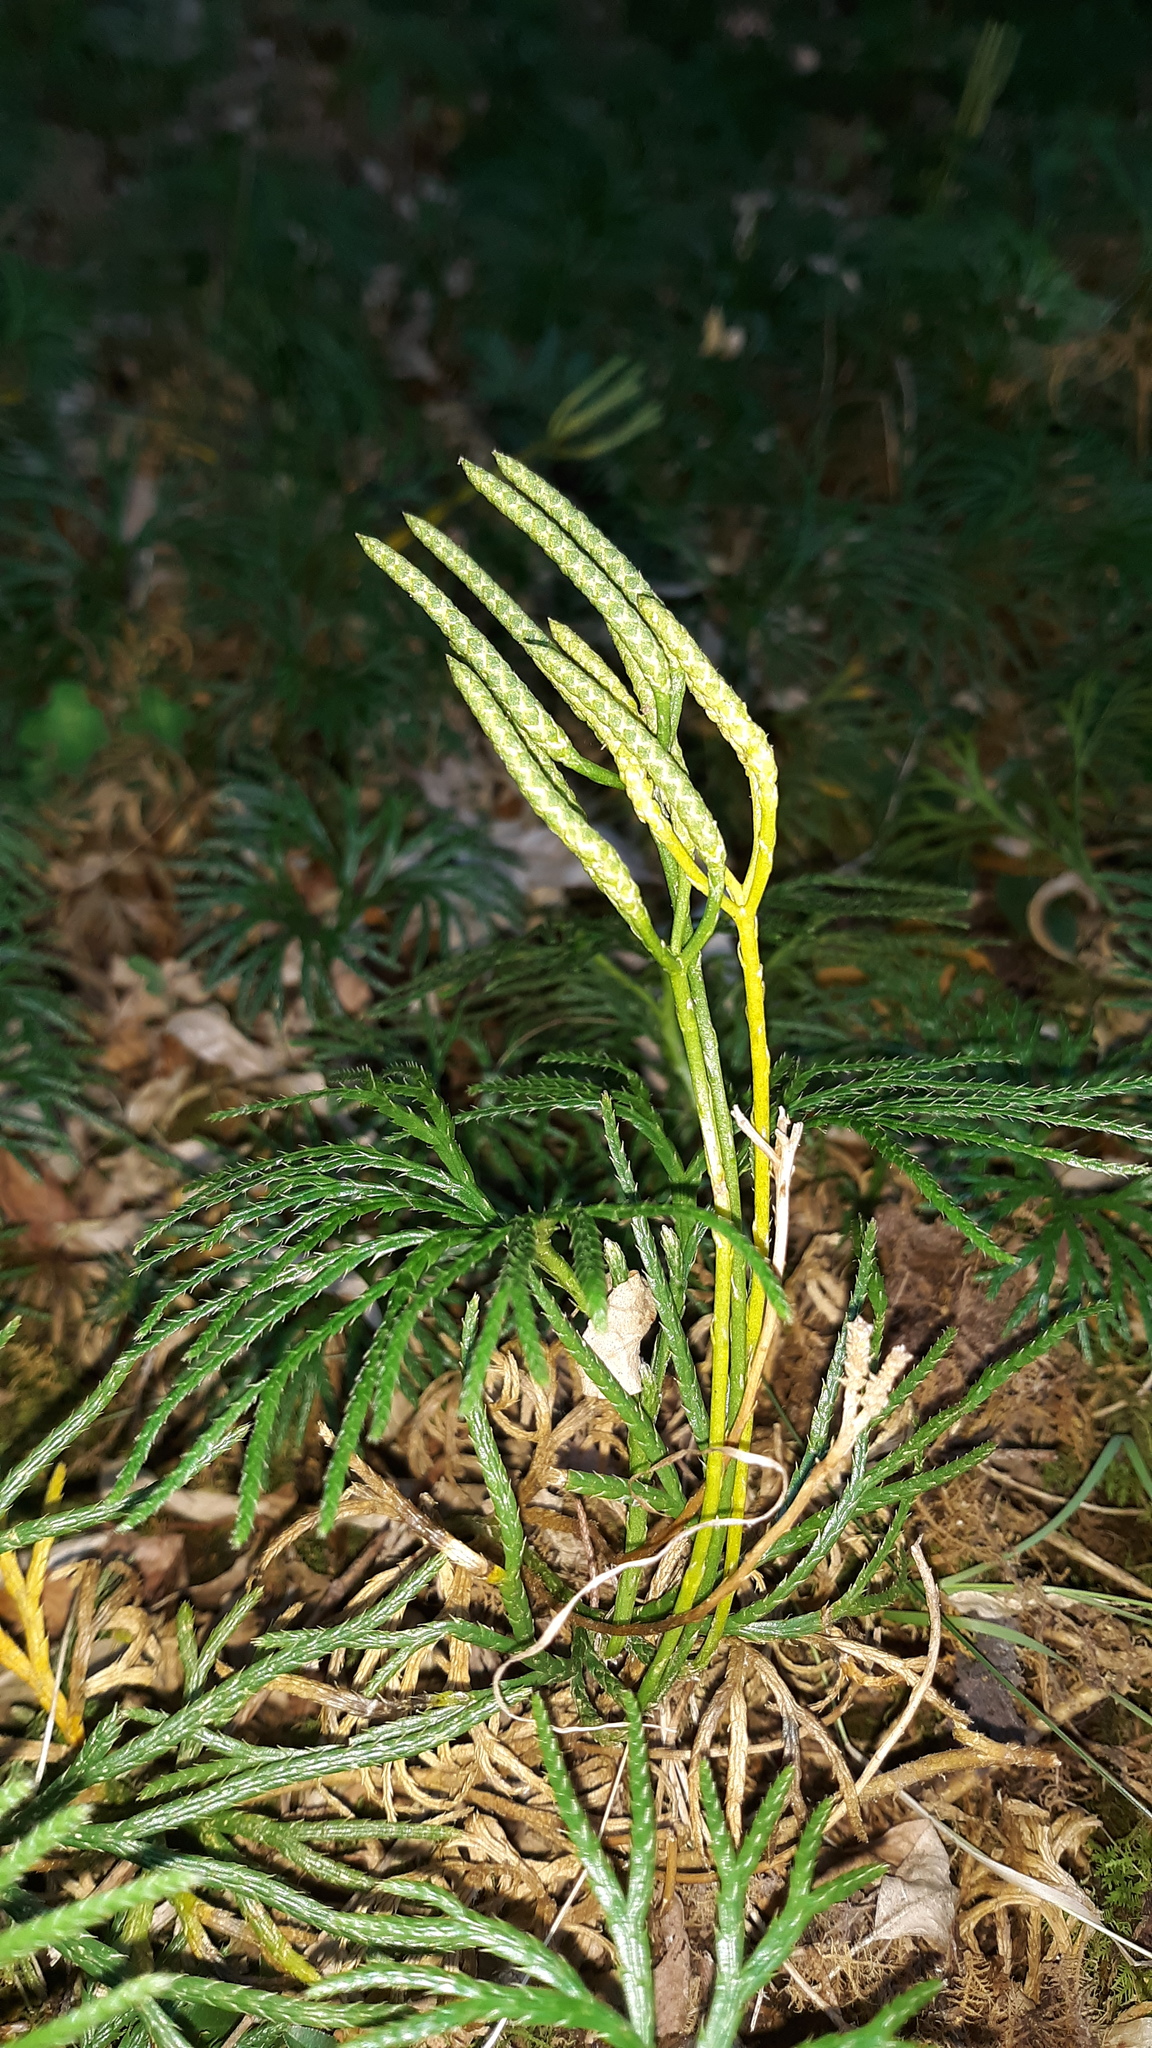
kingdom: Plantae
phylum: Tracheophyta
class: Lycopodiopsida
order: Lycopodiales
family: Lycopodiaceae
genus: Diphasiastrum
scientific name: Diphasiastrum digitatum
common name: Southern running-pine
